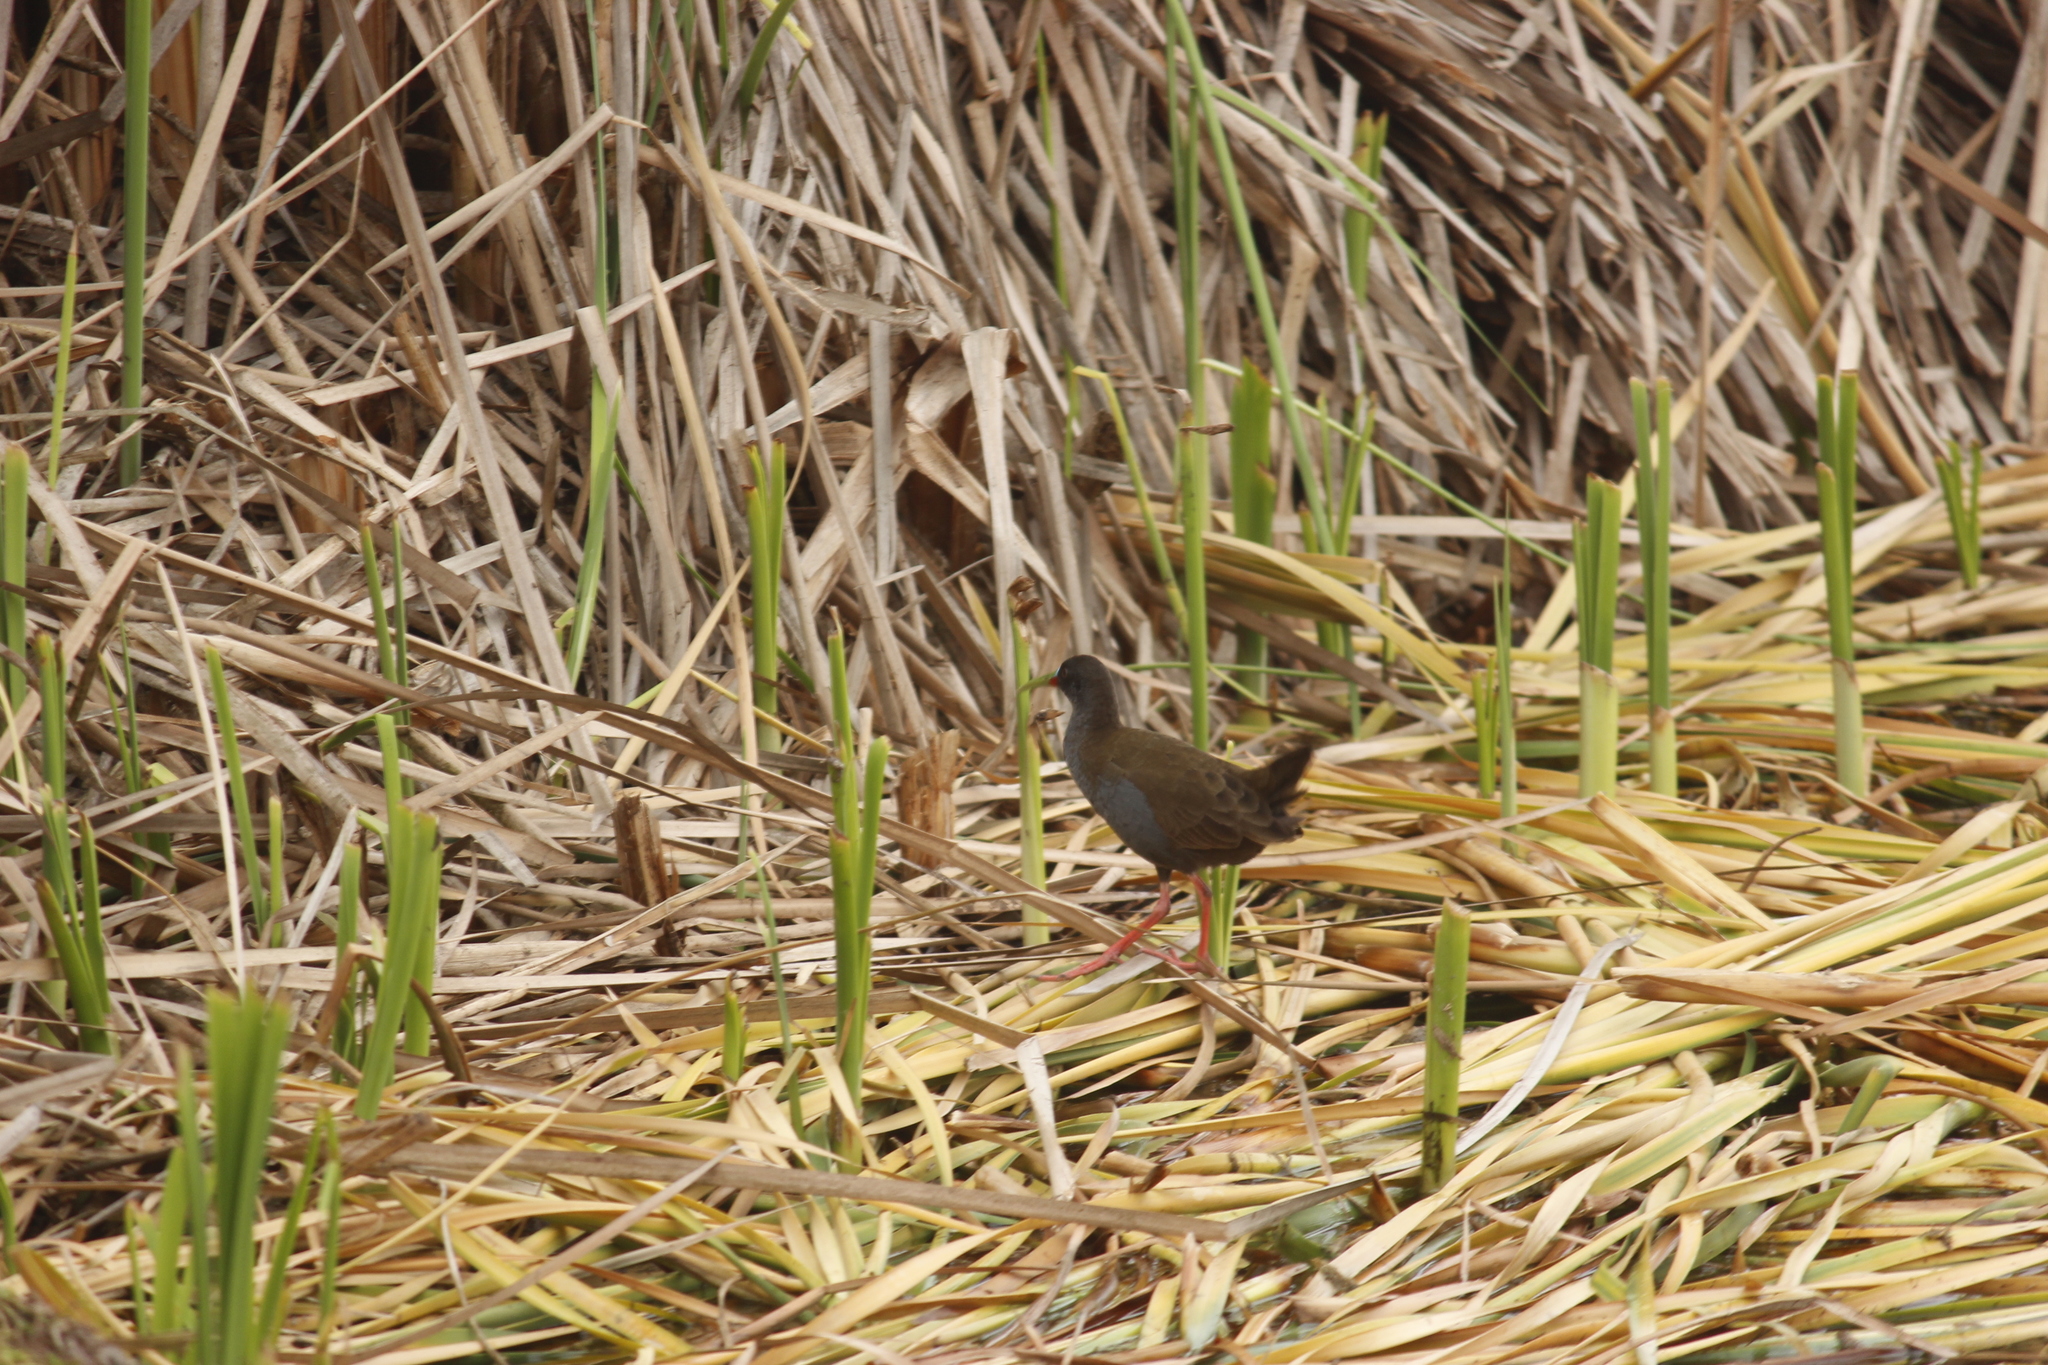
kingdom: Animalia
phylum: Chordata
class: Aves
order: Gruiformes
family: Rallidae
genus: Pardirallus
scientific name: Pardirallus sanguinolentus
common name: Plumbeous rail
